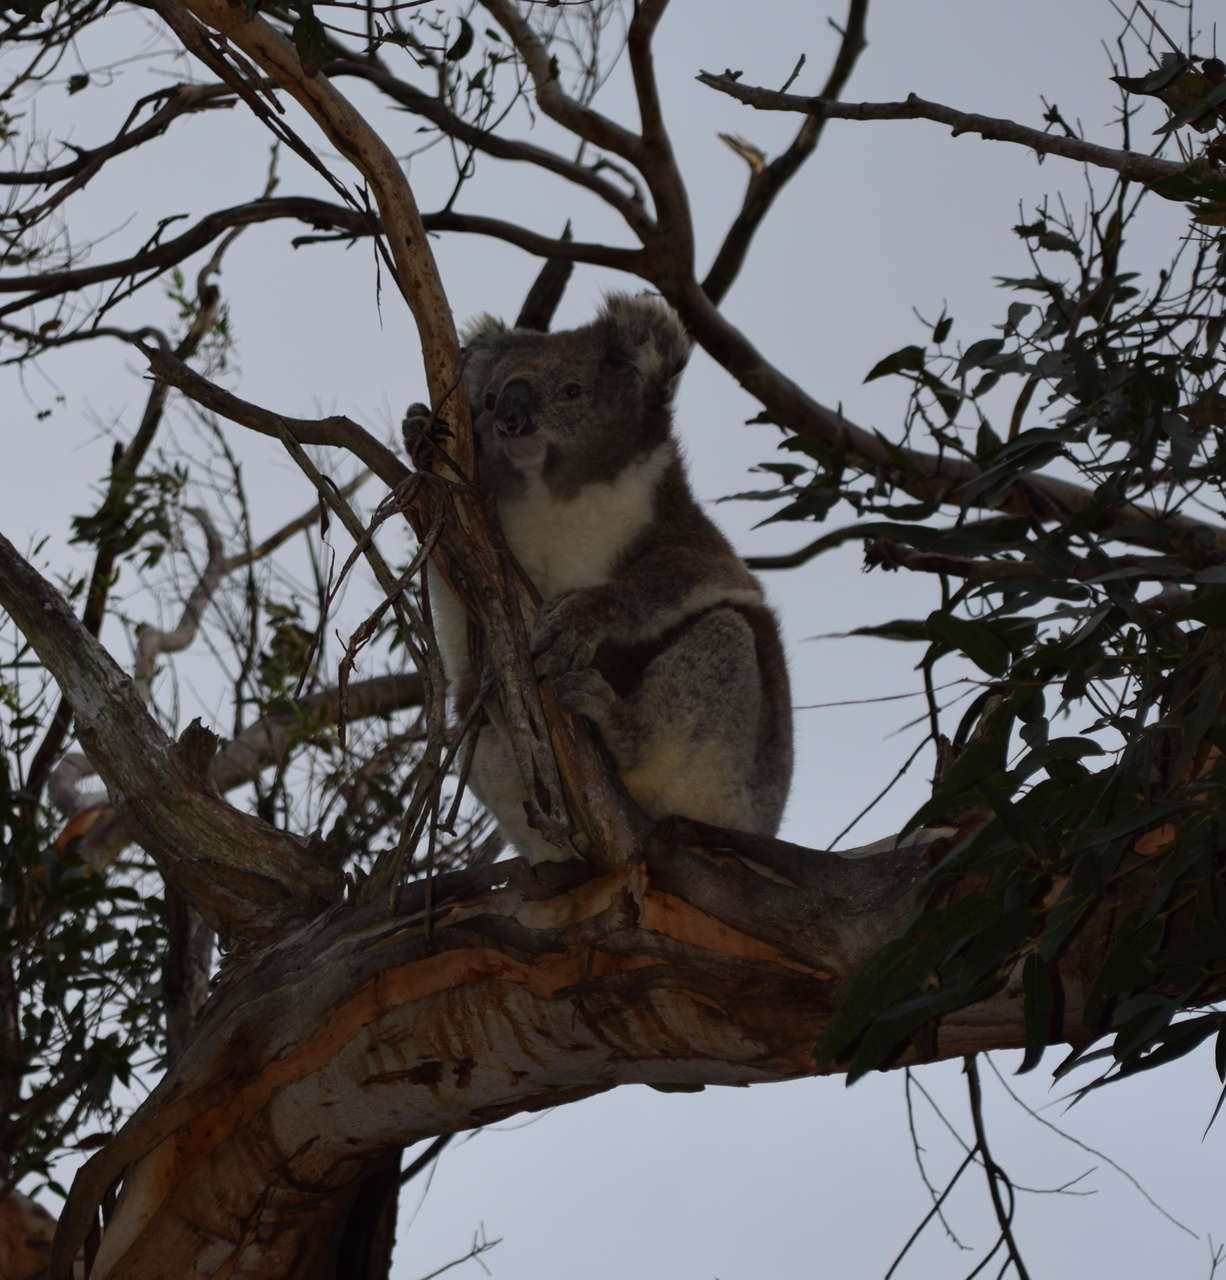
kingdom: Animalia
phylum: Chordata
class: Mammalia
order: Diprotodontia
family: Phascolarctidae
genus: Phascolarctos
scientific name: Phascolarctos cinereus
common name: Koala
